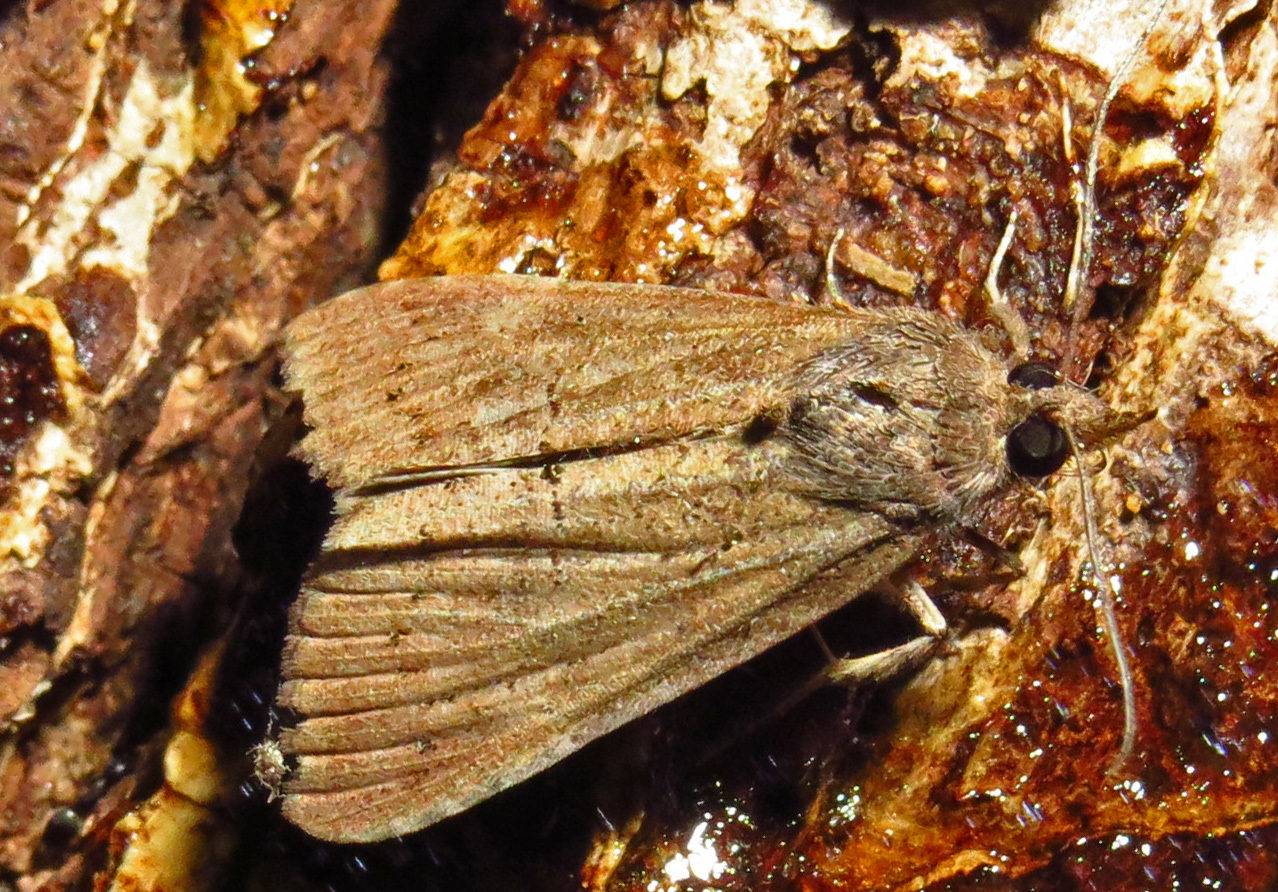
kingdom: Animalia
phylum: Arthropoda
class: Insecta
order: Lepidoptera
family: Erebidae
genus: Hypena
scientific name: Hypena scabra
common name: Green cloverworm
